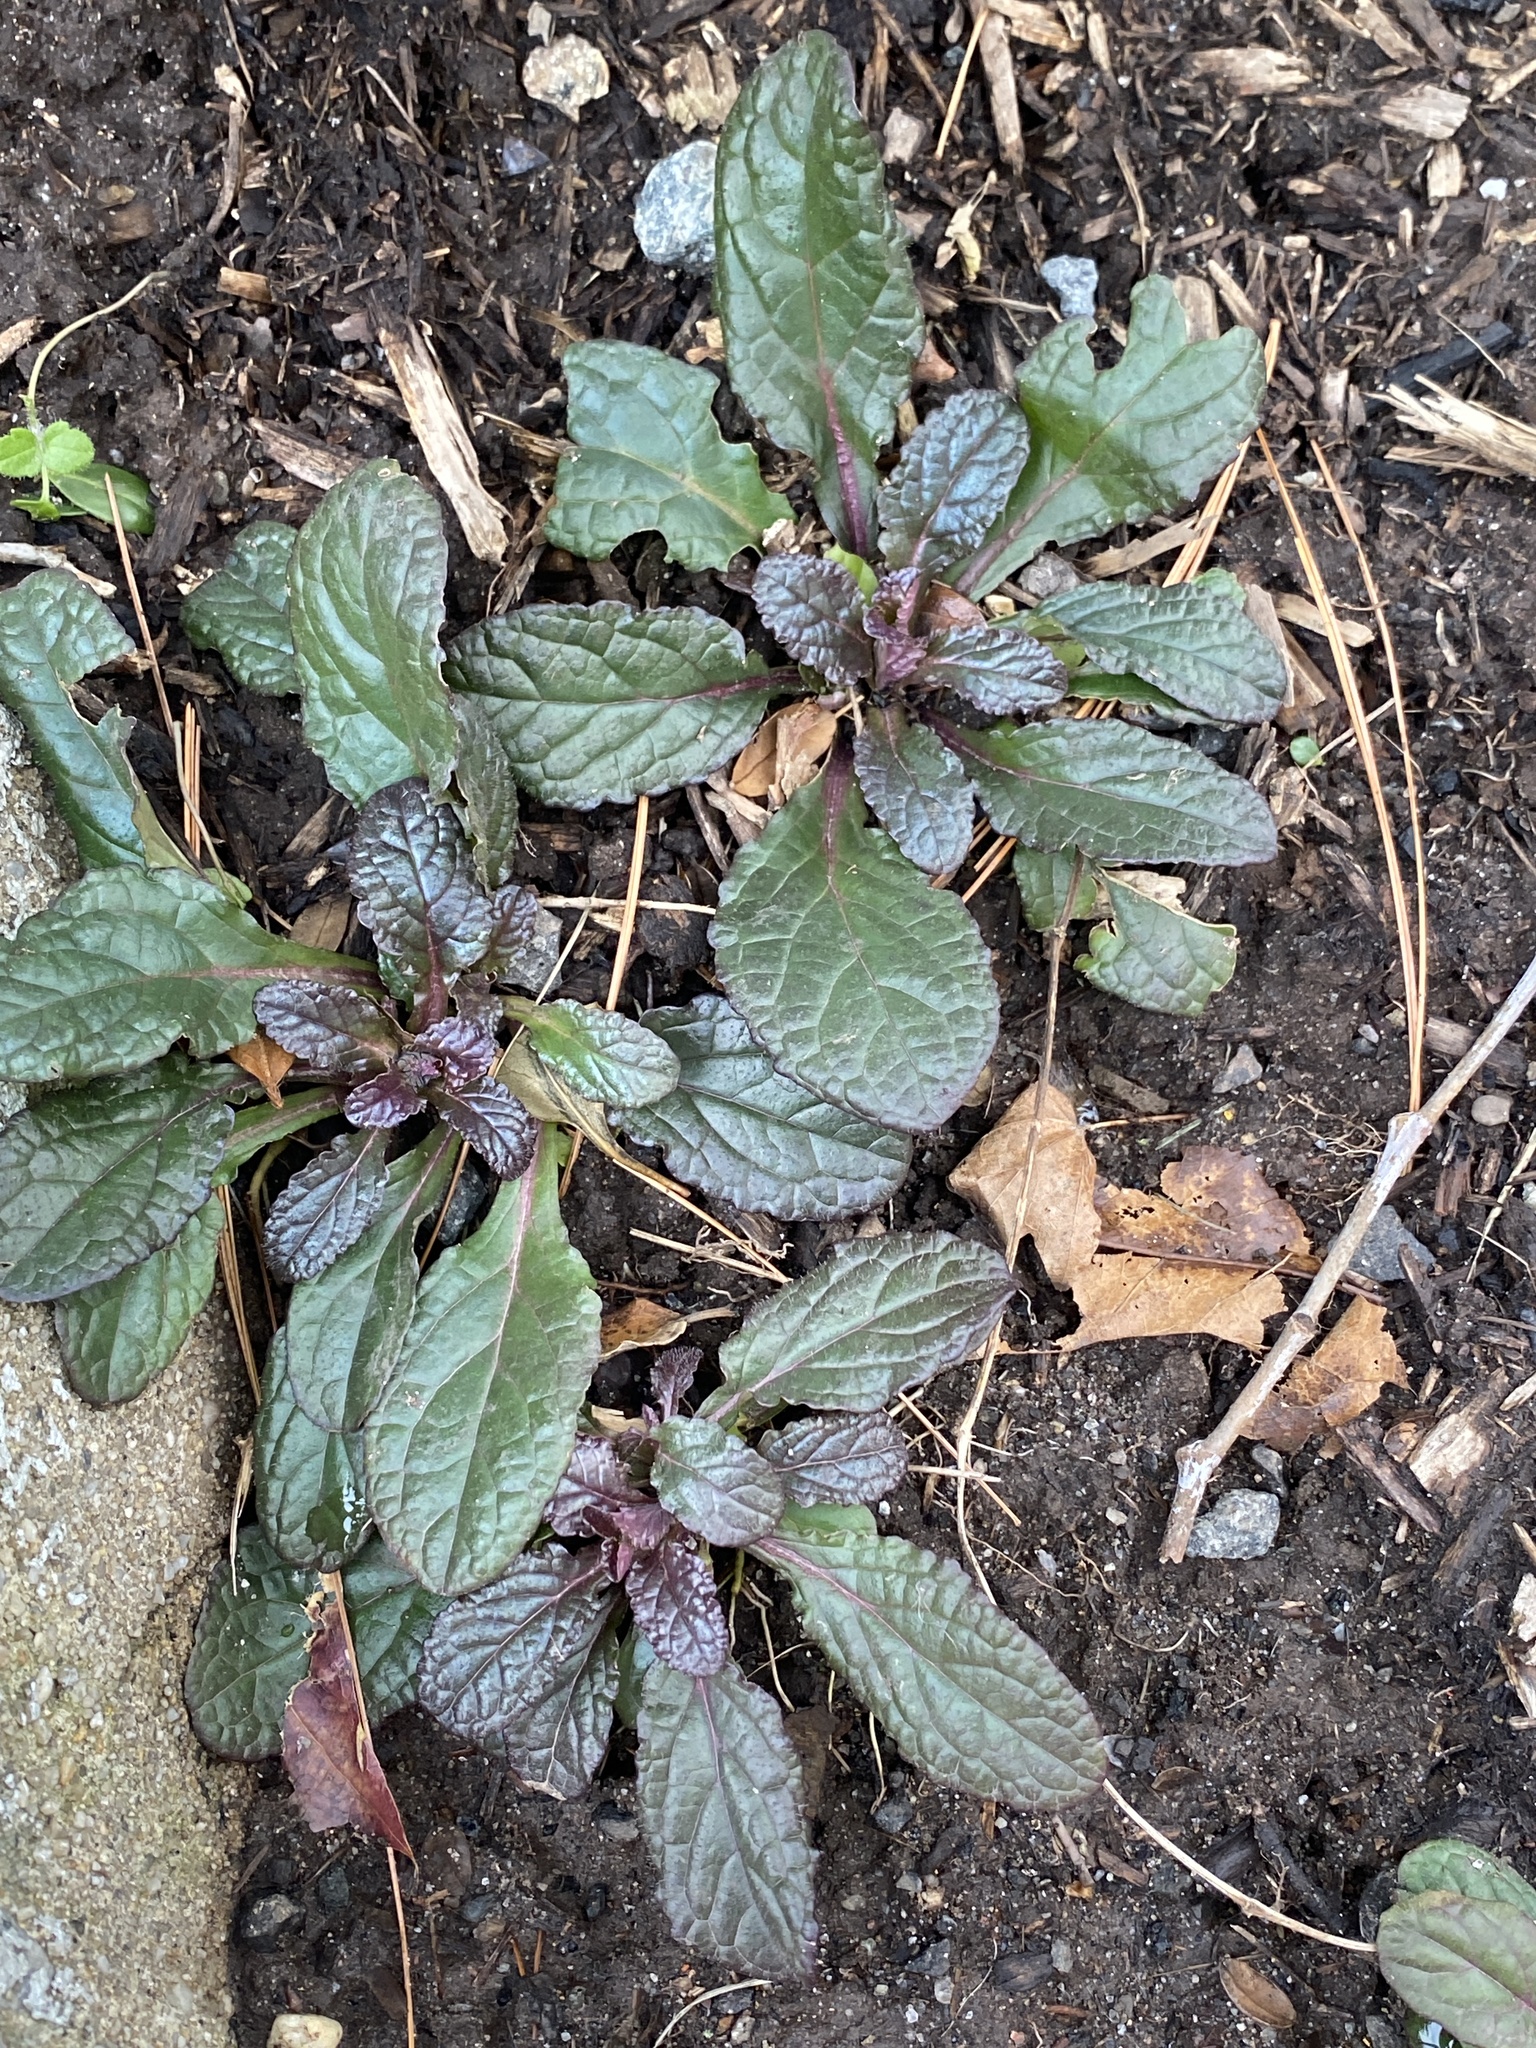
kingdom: Plantae
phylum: Tracheophyta
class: Magnoliopsida
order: Lamiales
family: Lamiaceae
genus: Ajuga
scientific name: Ajuga reptans
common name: Bugle
